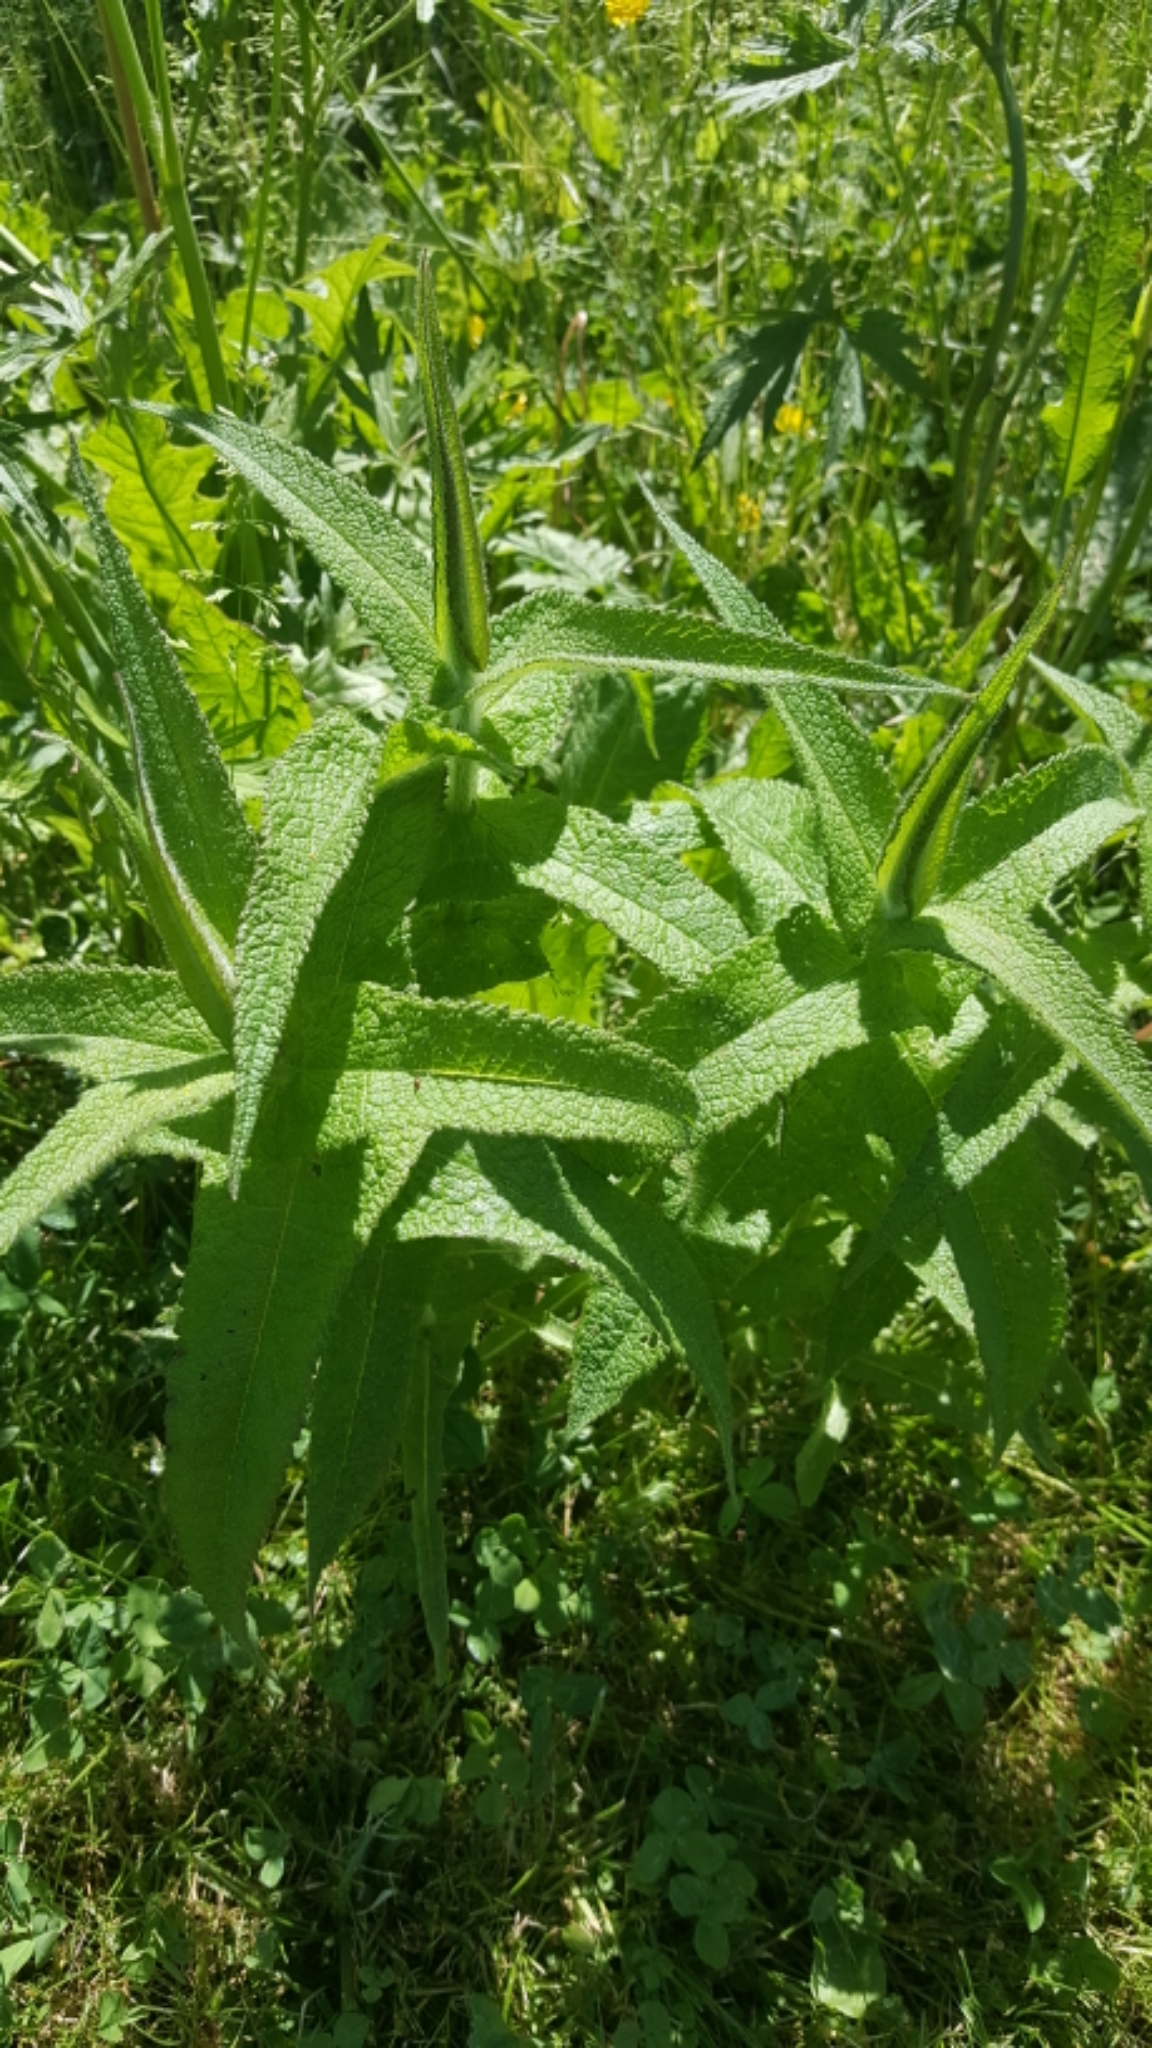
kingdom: Plantae
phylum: Tracheophyta
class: Magnoliopsida
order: Asterales
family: Asteraceae
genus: Eupatorium
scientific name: Eupatorium perfoliatum
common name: Boneset
